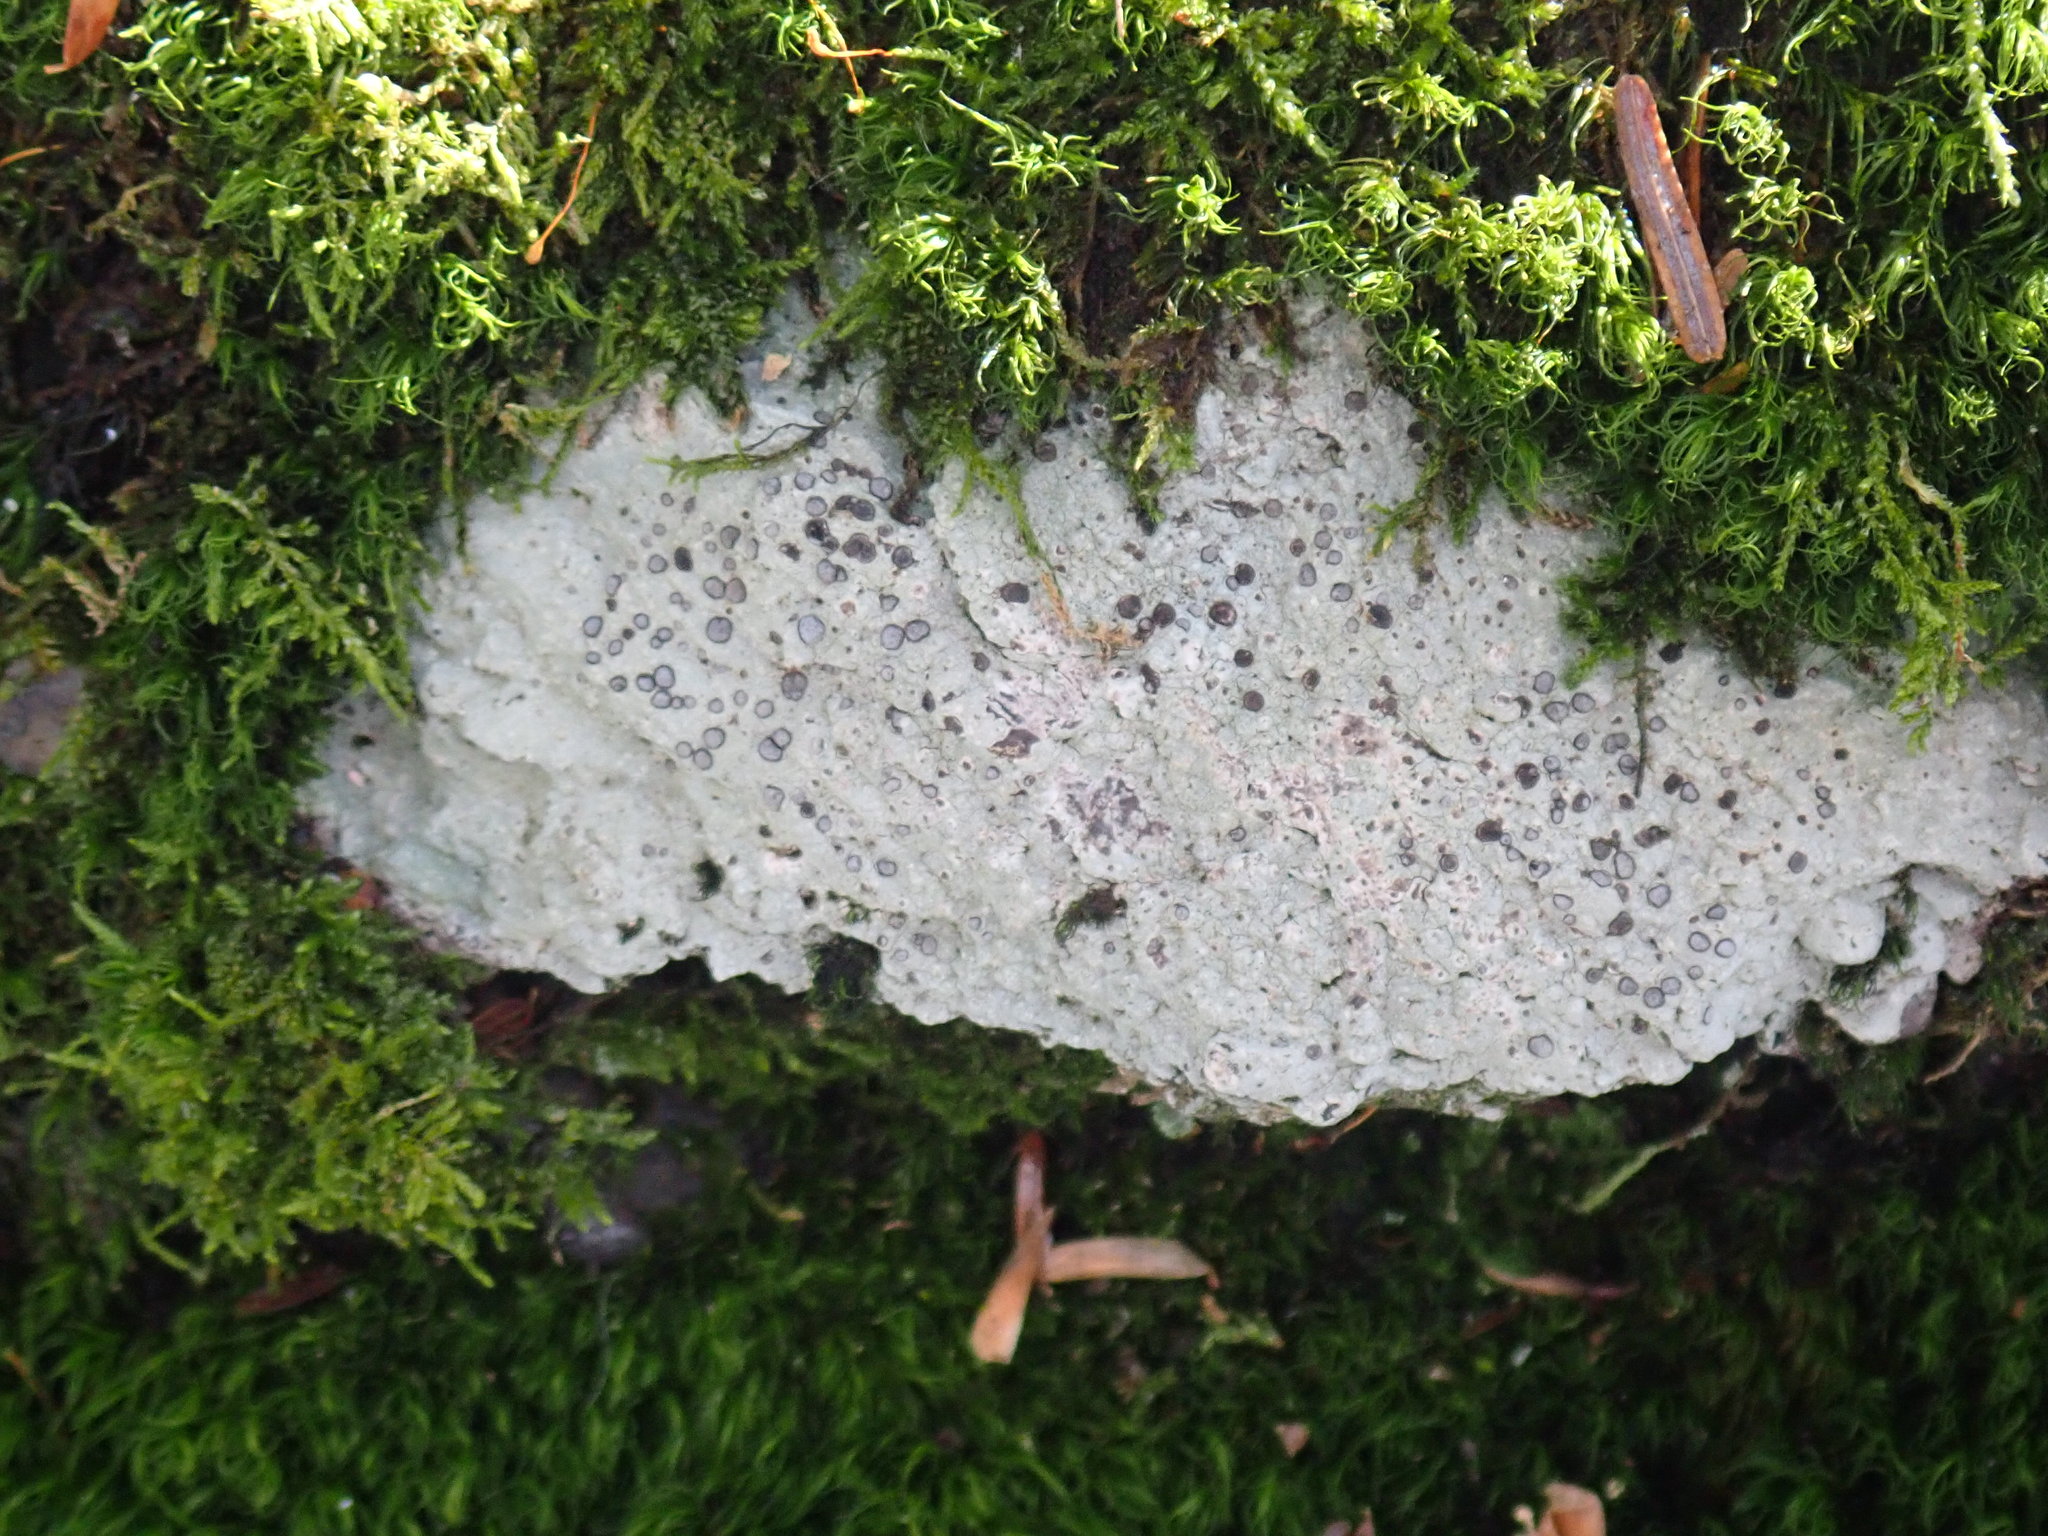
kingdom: Fungi
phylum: Ascomycota
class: Lecanoromycetes
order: Lecideales
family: Lecideaceae
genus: Porpidia
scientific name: Porpidia albocaerulescens
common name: Smokey-eyed boulder lichen
